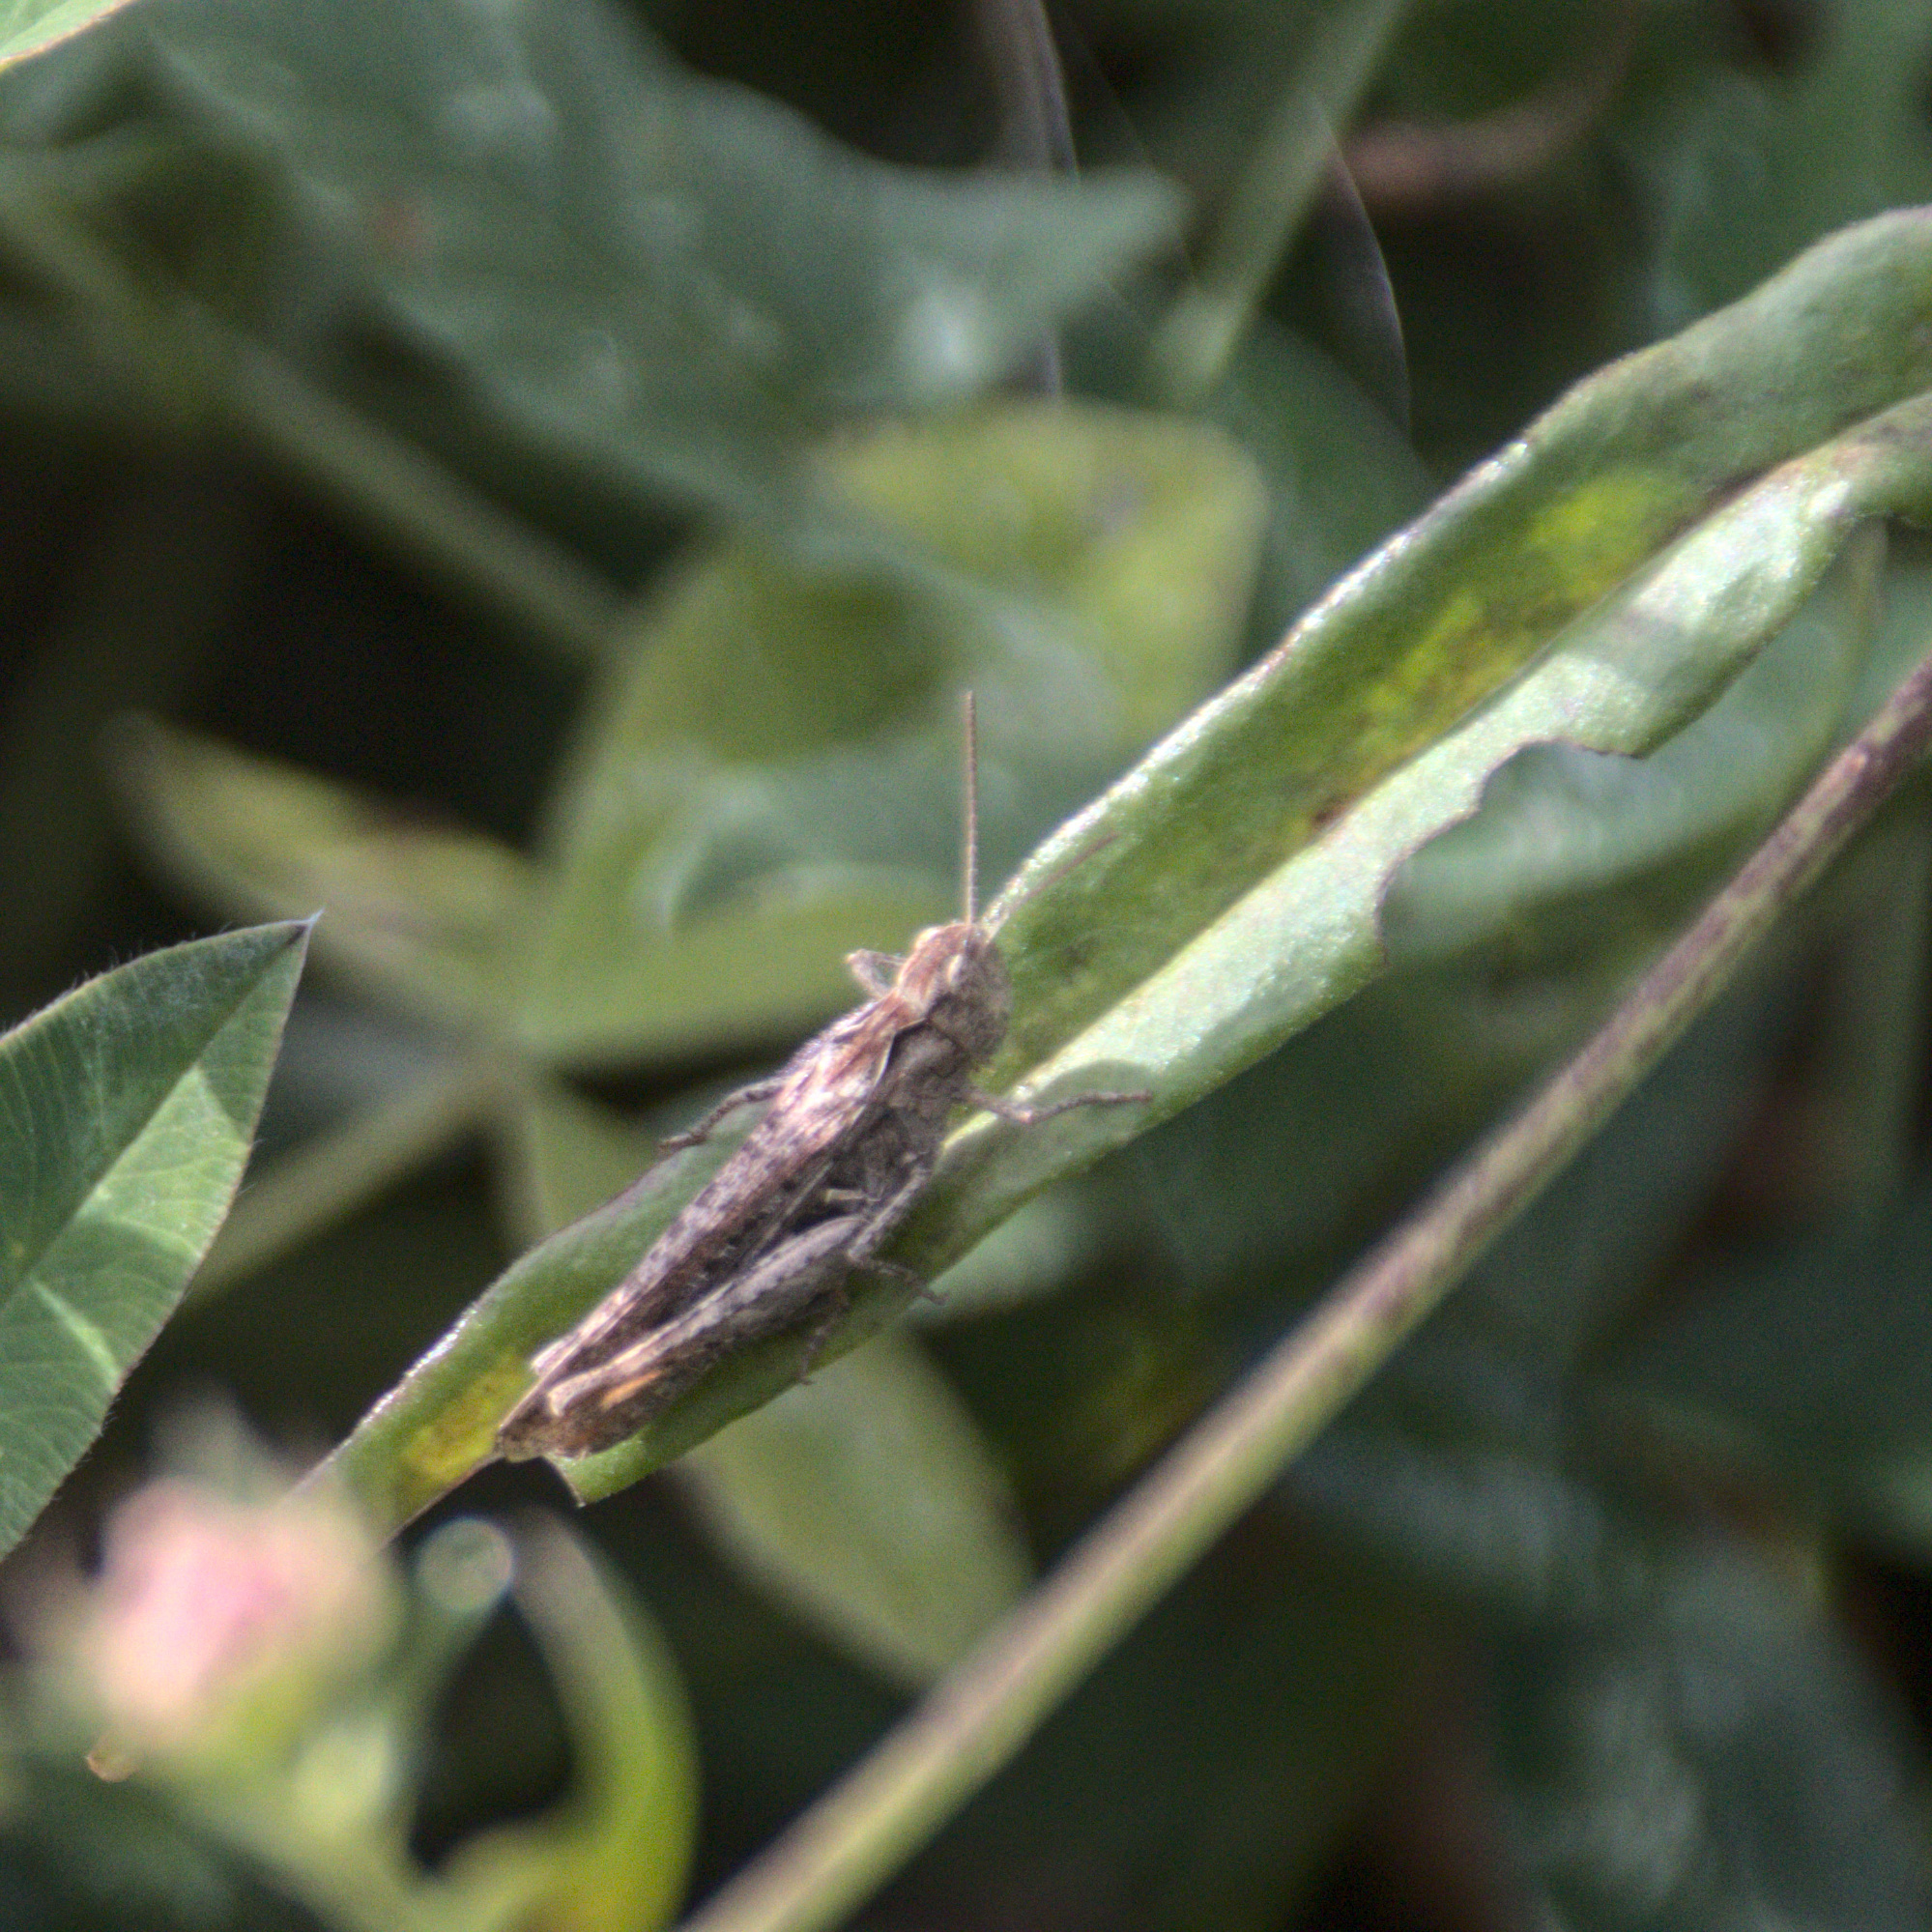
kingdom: Animalia
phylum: Arthropoda
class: Insecta
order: Orthoptera
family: Acrididae
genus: Glyptobothrus
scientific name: Glyptobothrus
